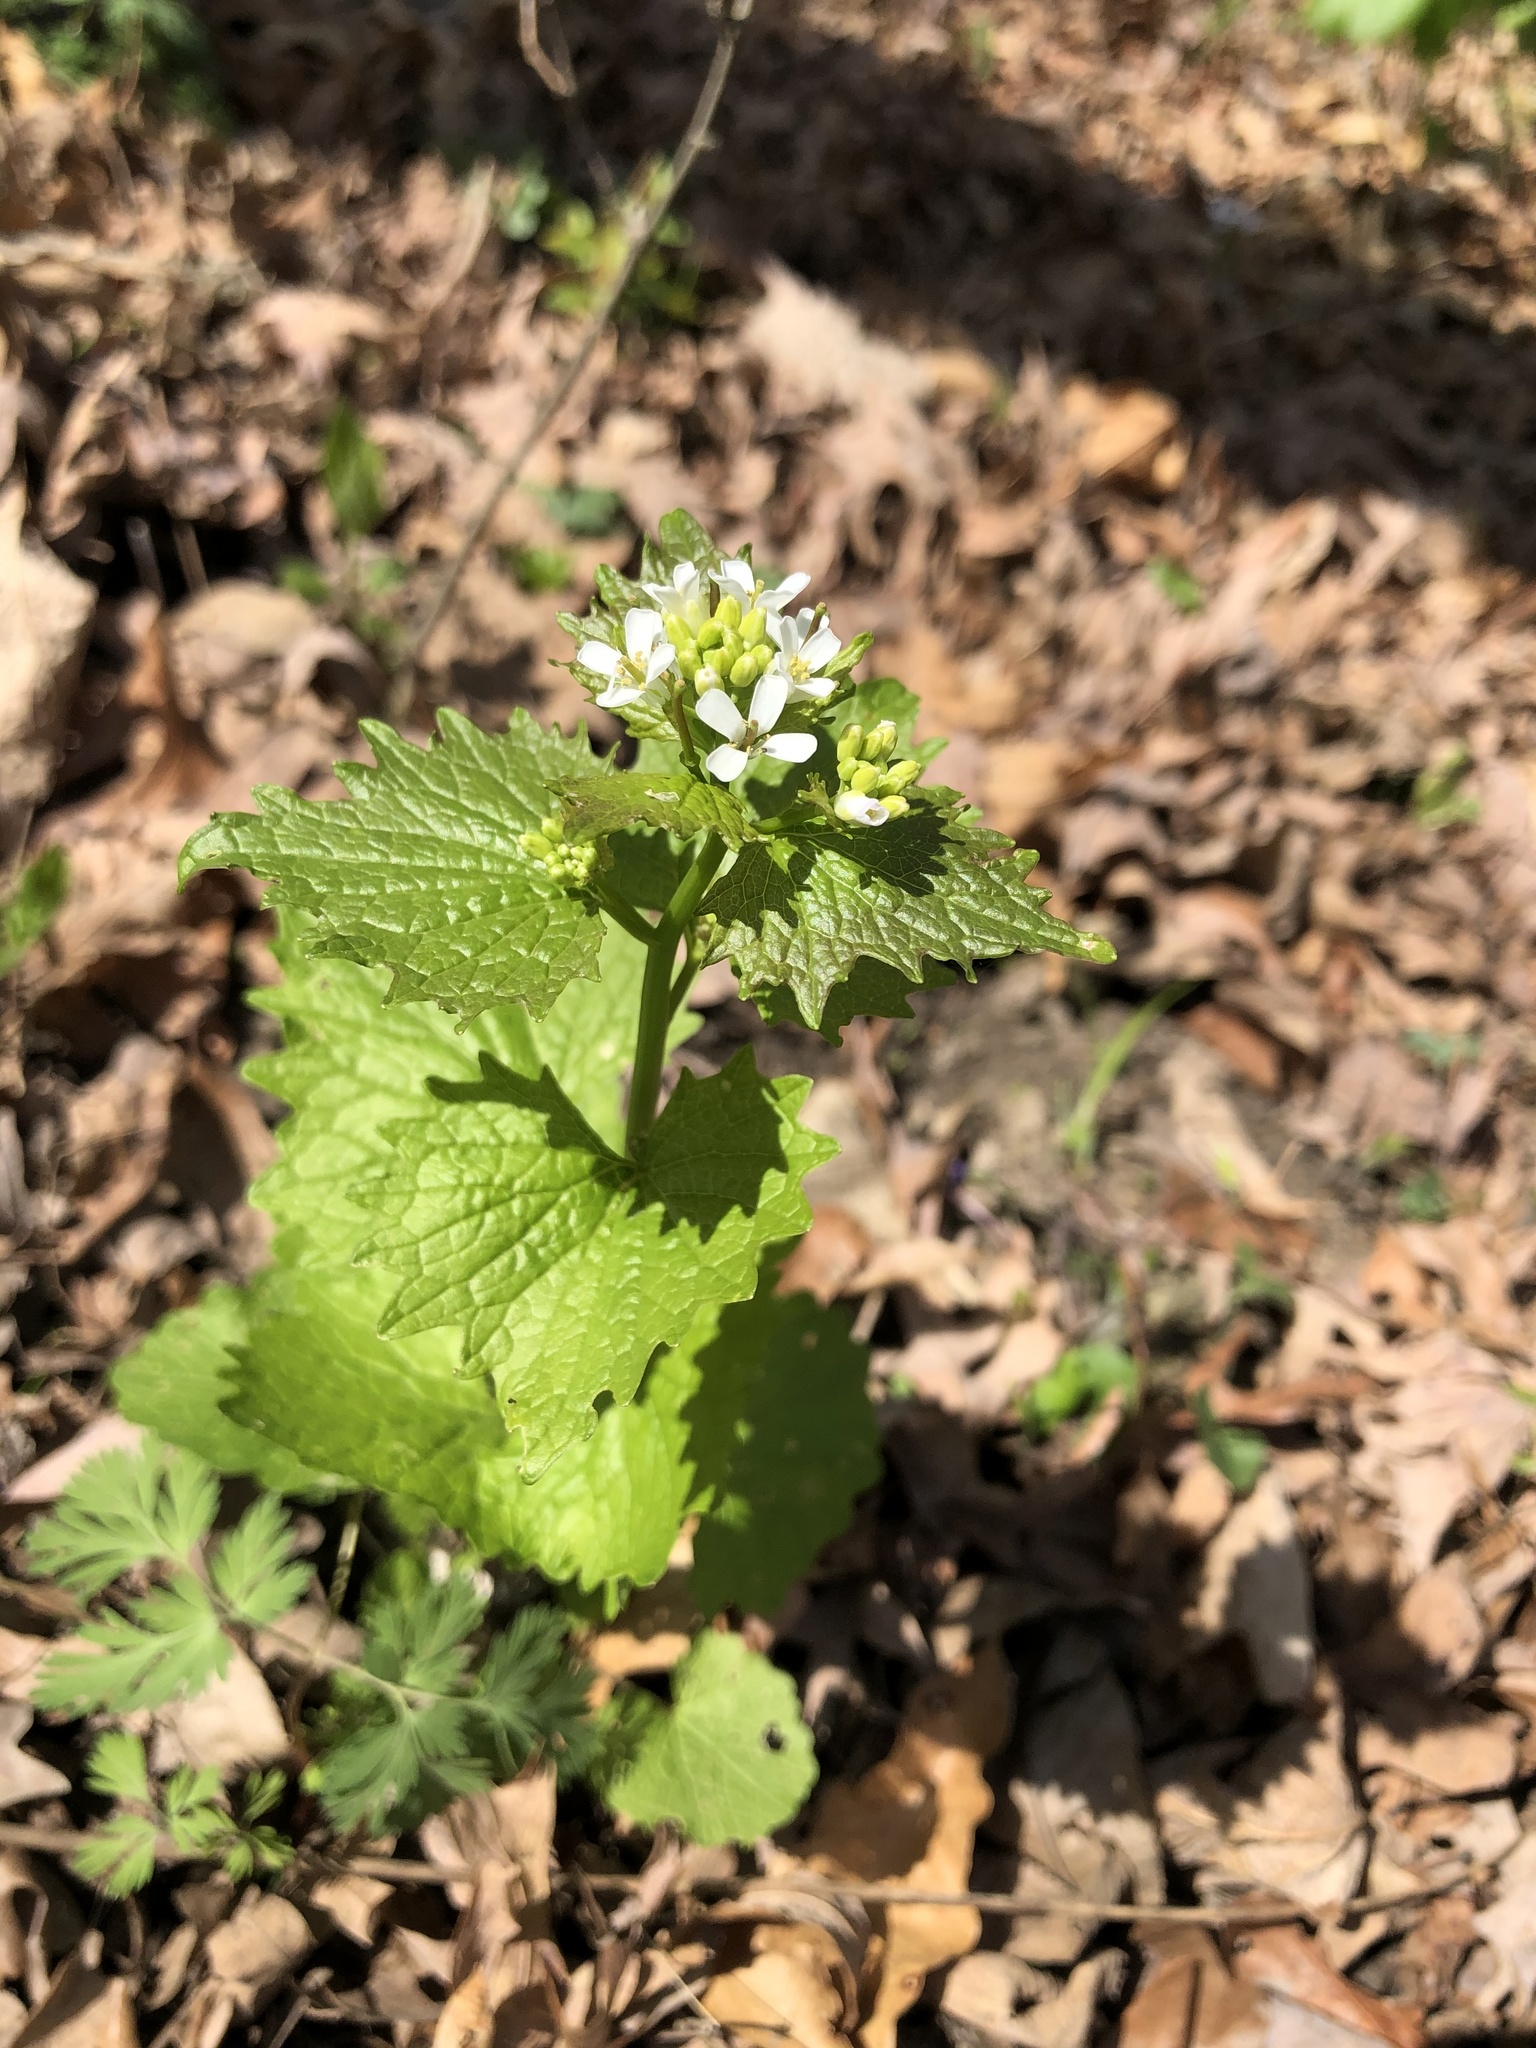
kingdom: Plantae
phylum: Tracheophyta
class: Magnoliopsida
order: Brassicales
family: Brassicaceae
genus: Alliaria
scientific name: Alliaria petiolata
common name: Garlic mustard
